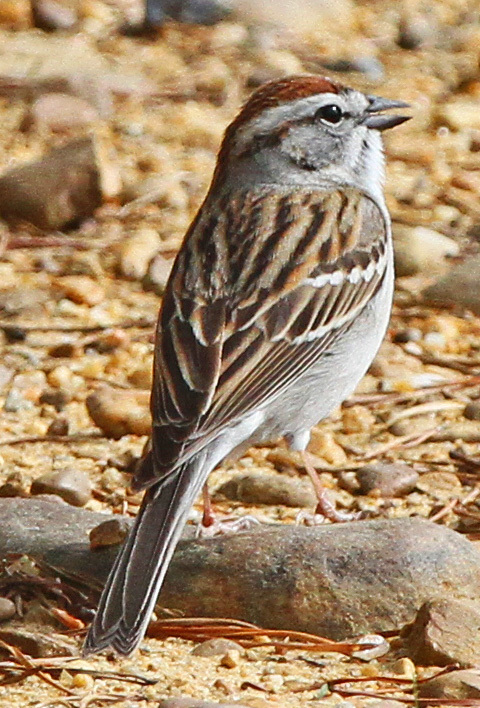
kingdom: Animalia
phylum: Chordata
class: Aves
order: Passeriformes
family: Passerellidae
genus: Spizella
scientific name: Spizella passerina
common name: Chipping sparrow
